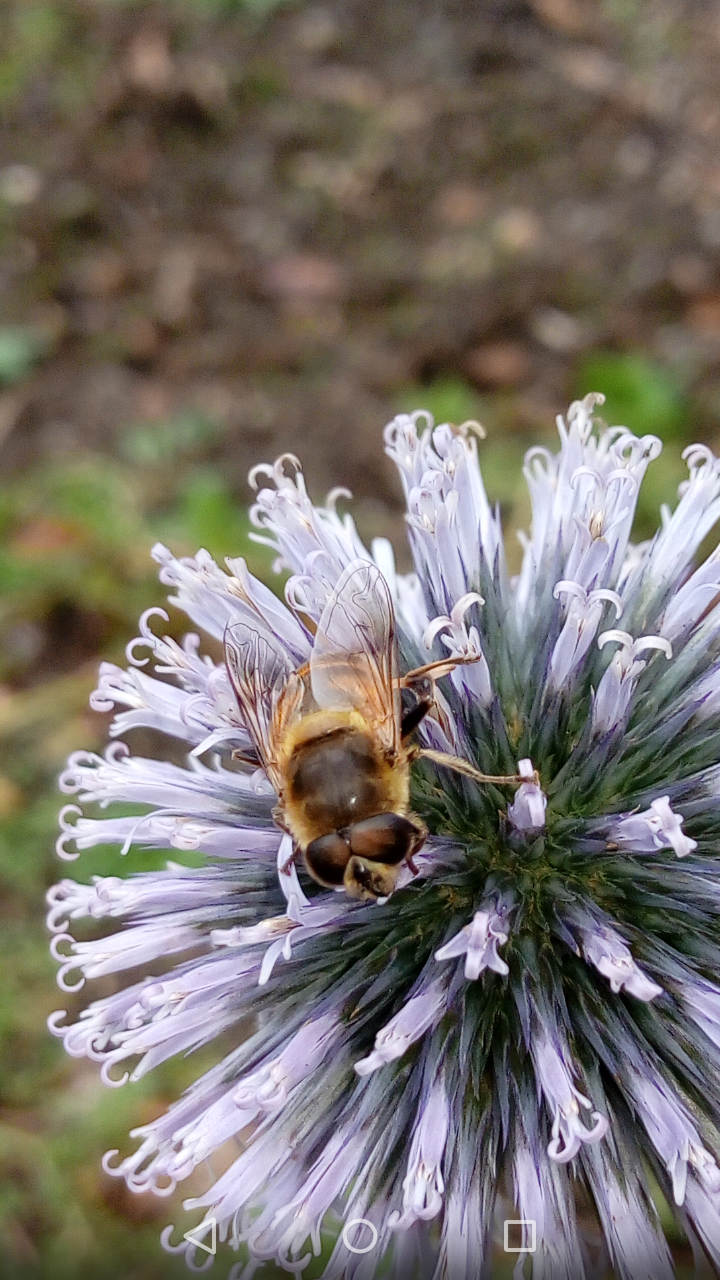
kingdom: Animalia
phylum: Arthropoda
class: Insecta
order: Diptera
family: Syrphidae
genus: Eristalis
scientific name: Eristalis tenax
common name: Drone fly
